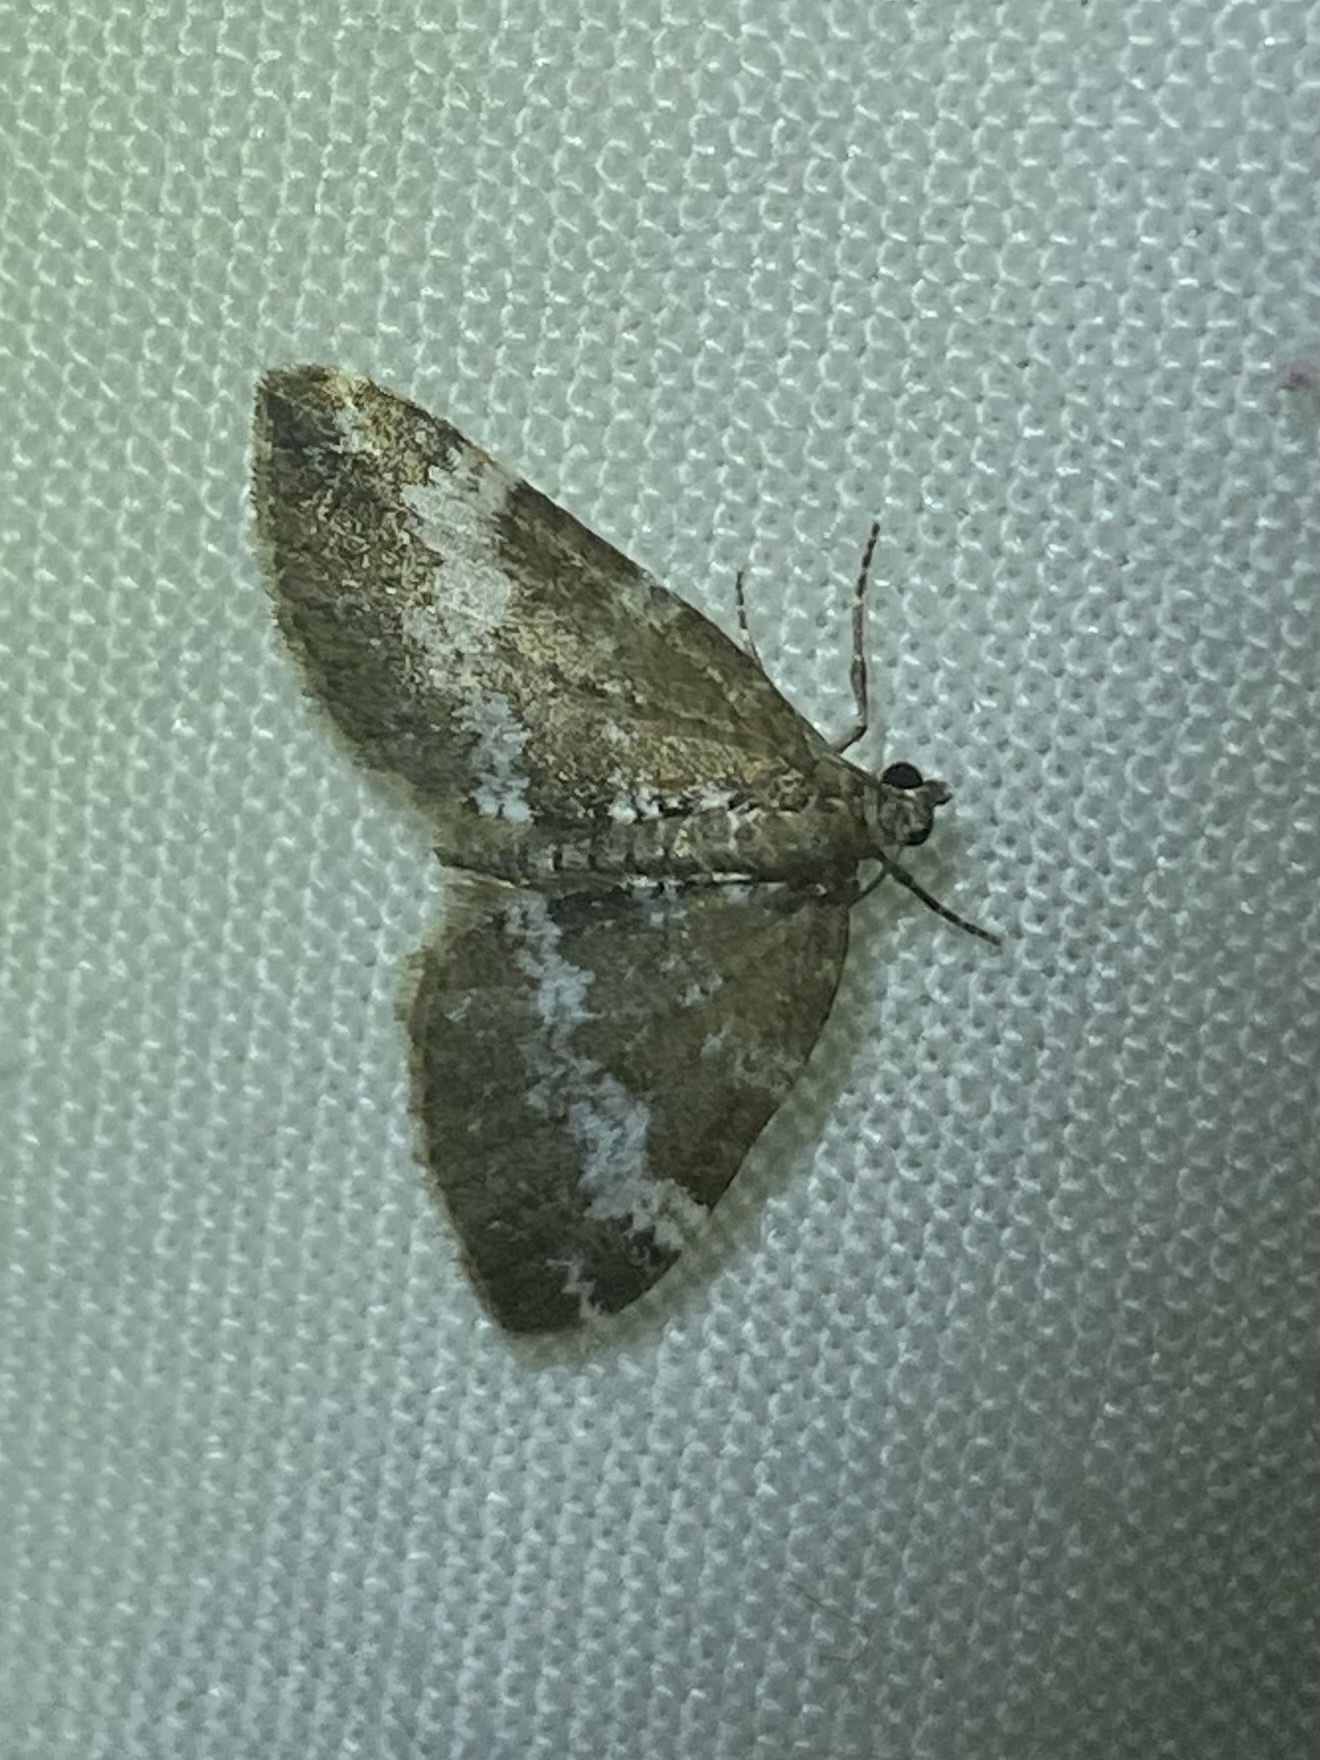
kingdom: Animalia
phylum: Arthropoda
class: Insecta
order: Lepidoptera
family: Geometridae
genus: Perizoma
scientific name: Perizoma alchemillata
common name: Small rivulet
